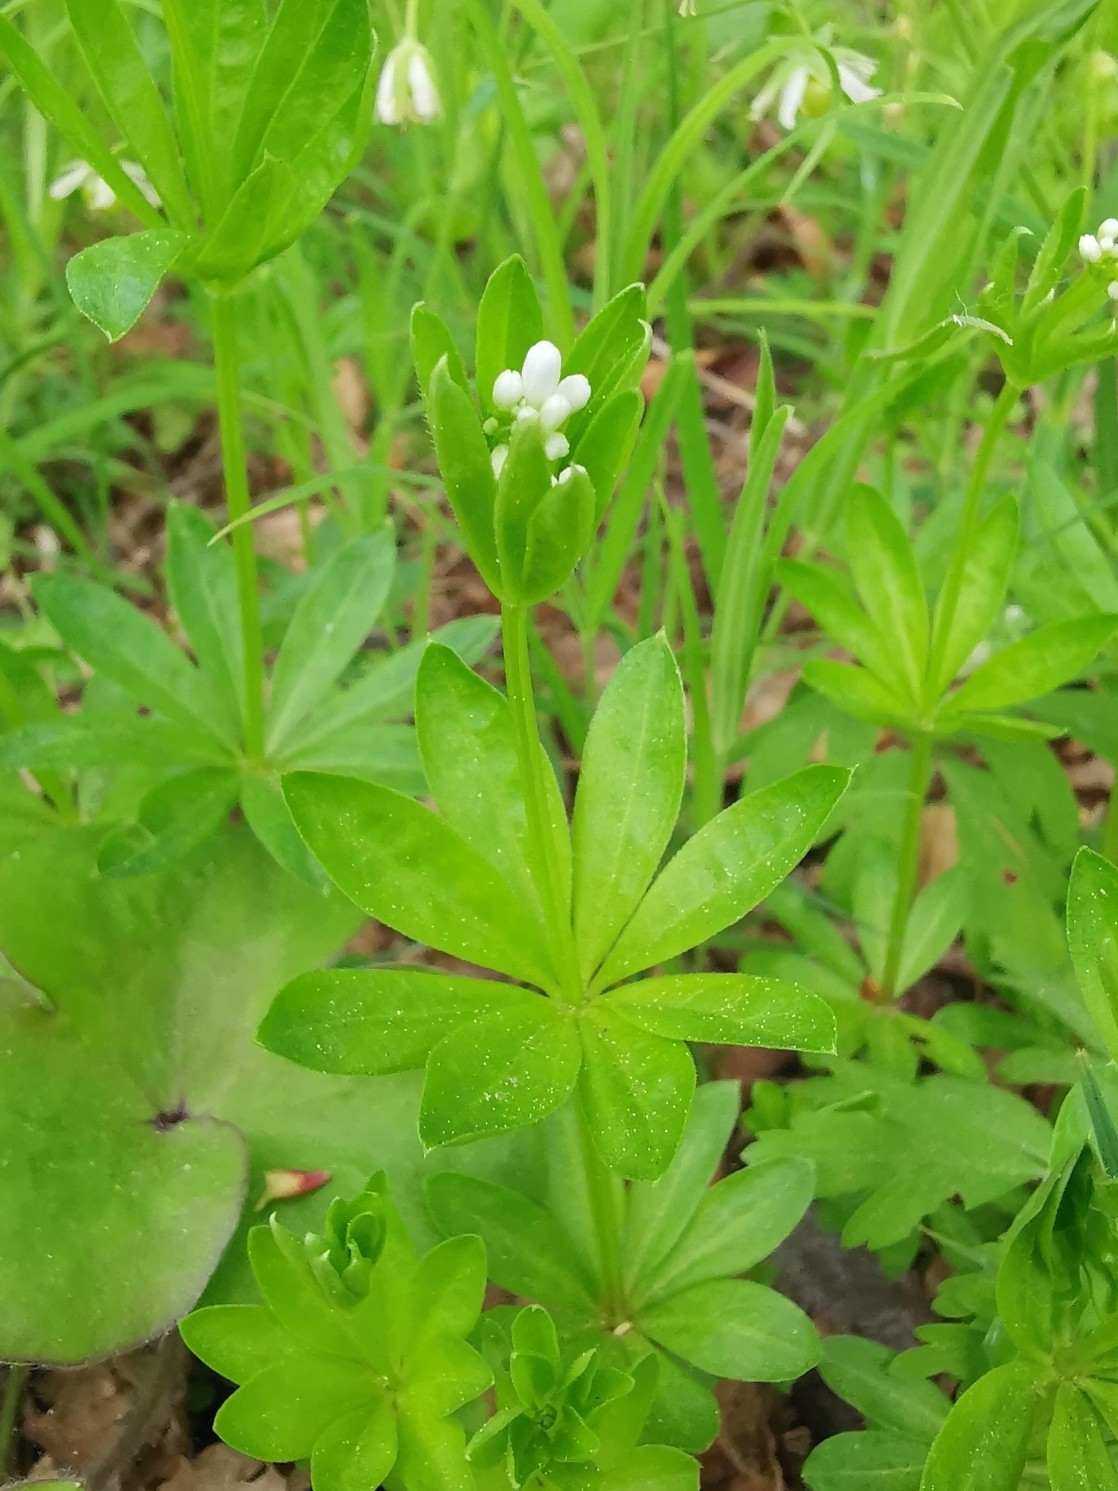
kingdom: Plantae
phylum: Tracheophyta
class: Magnoliopsida
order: Gentianales
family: Rubiaceae
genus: Galium
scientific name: Galium odoratum
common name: Sweet woodruff
